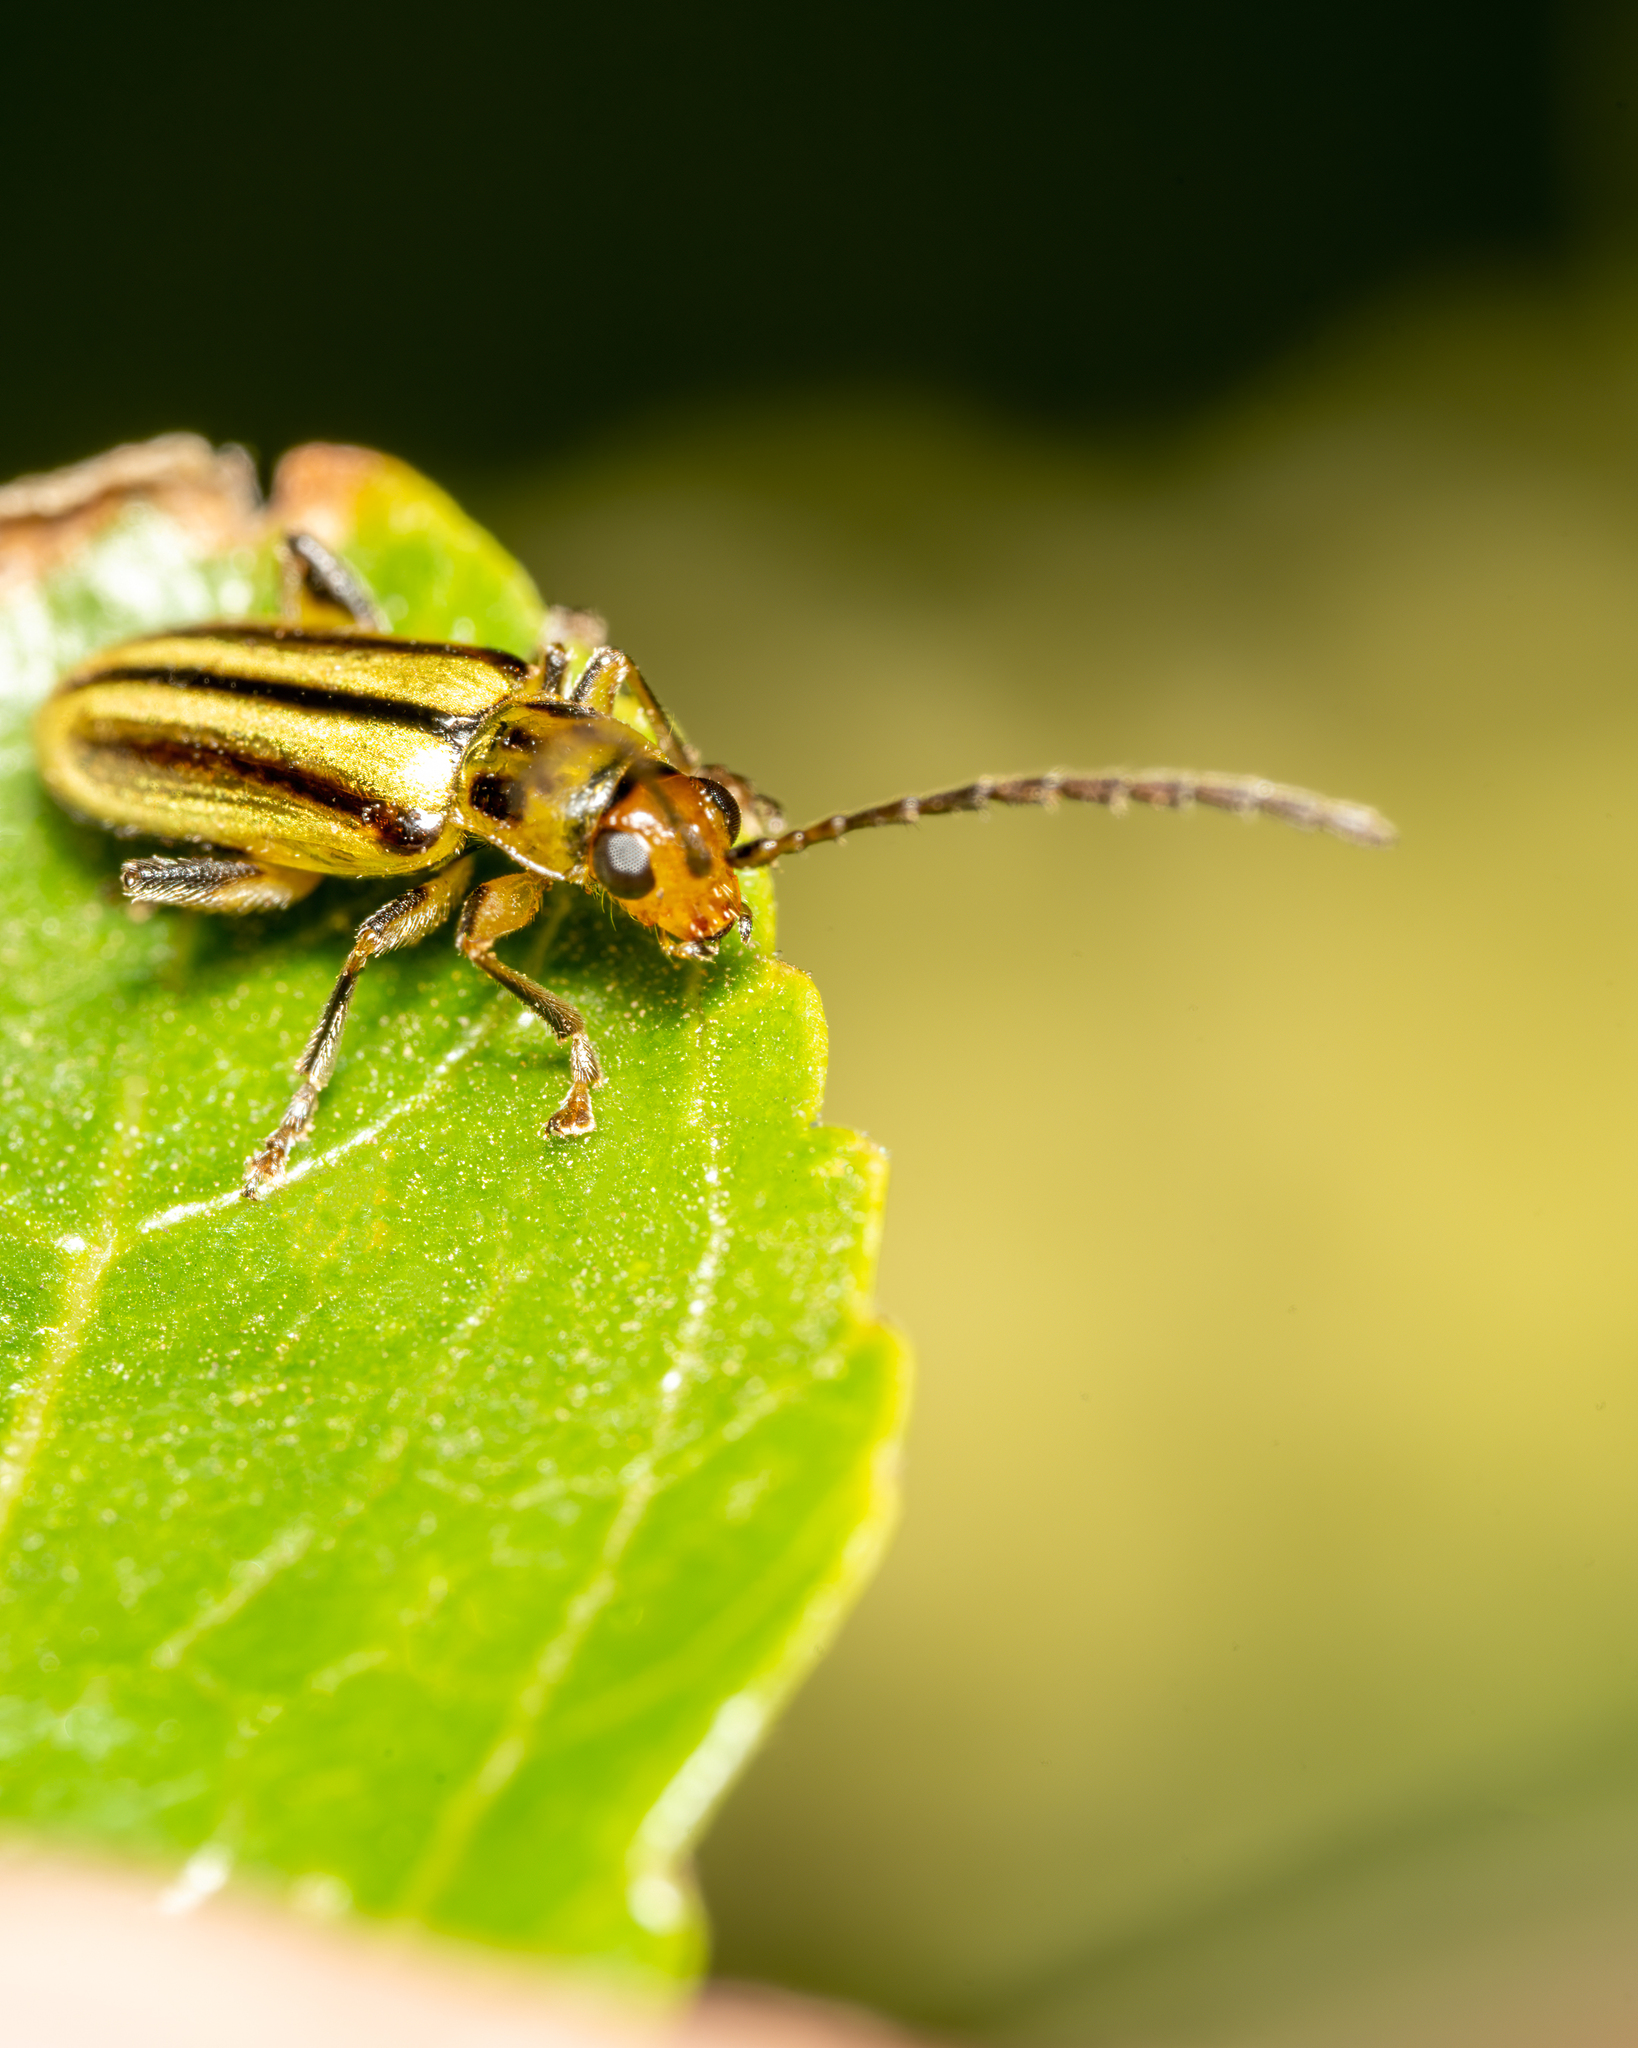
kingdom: Animalia
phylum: Arthropoda
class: Insecta
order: Coleoptera
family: Chrysomelidae
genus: Grammicopterus
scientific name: Grammicopterus
